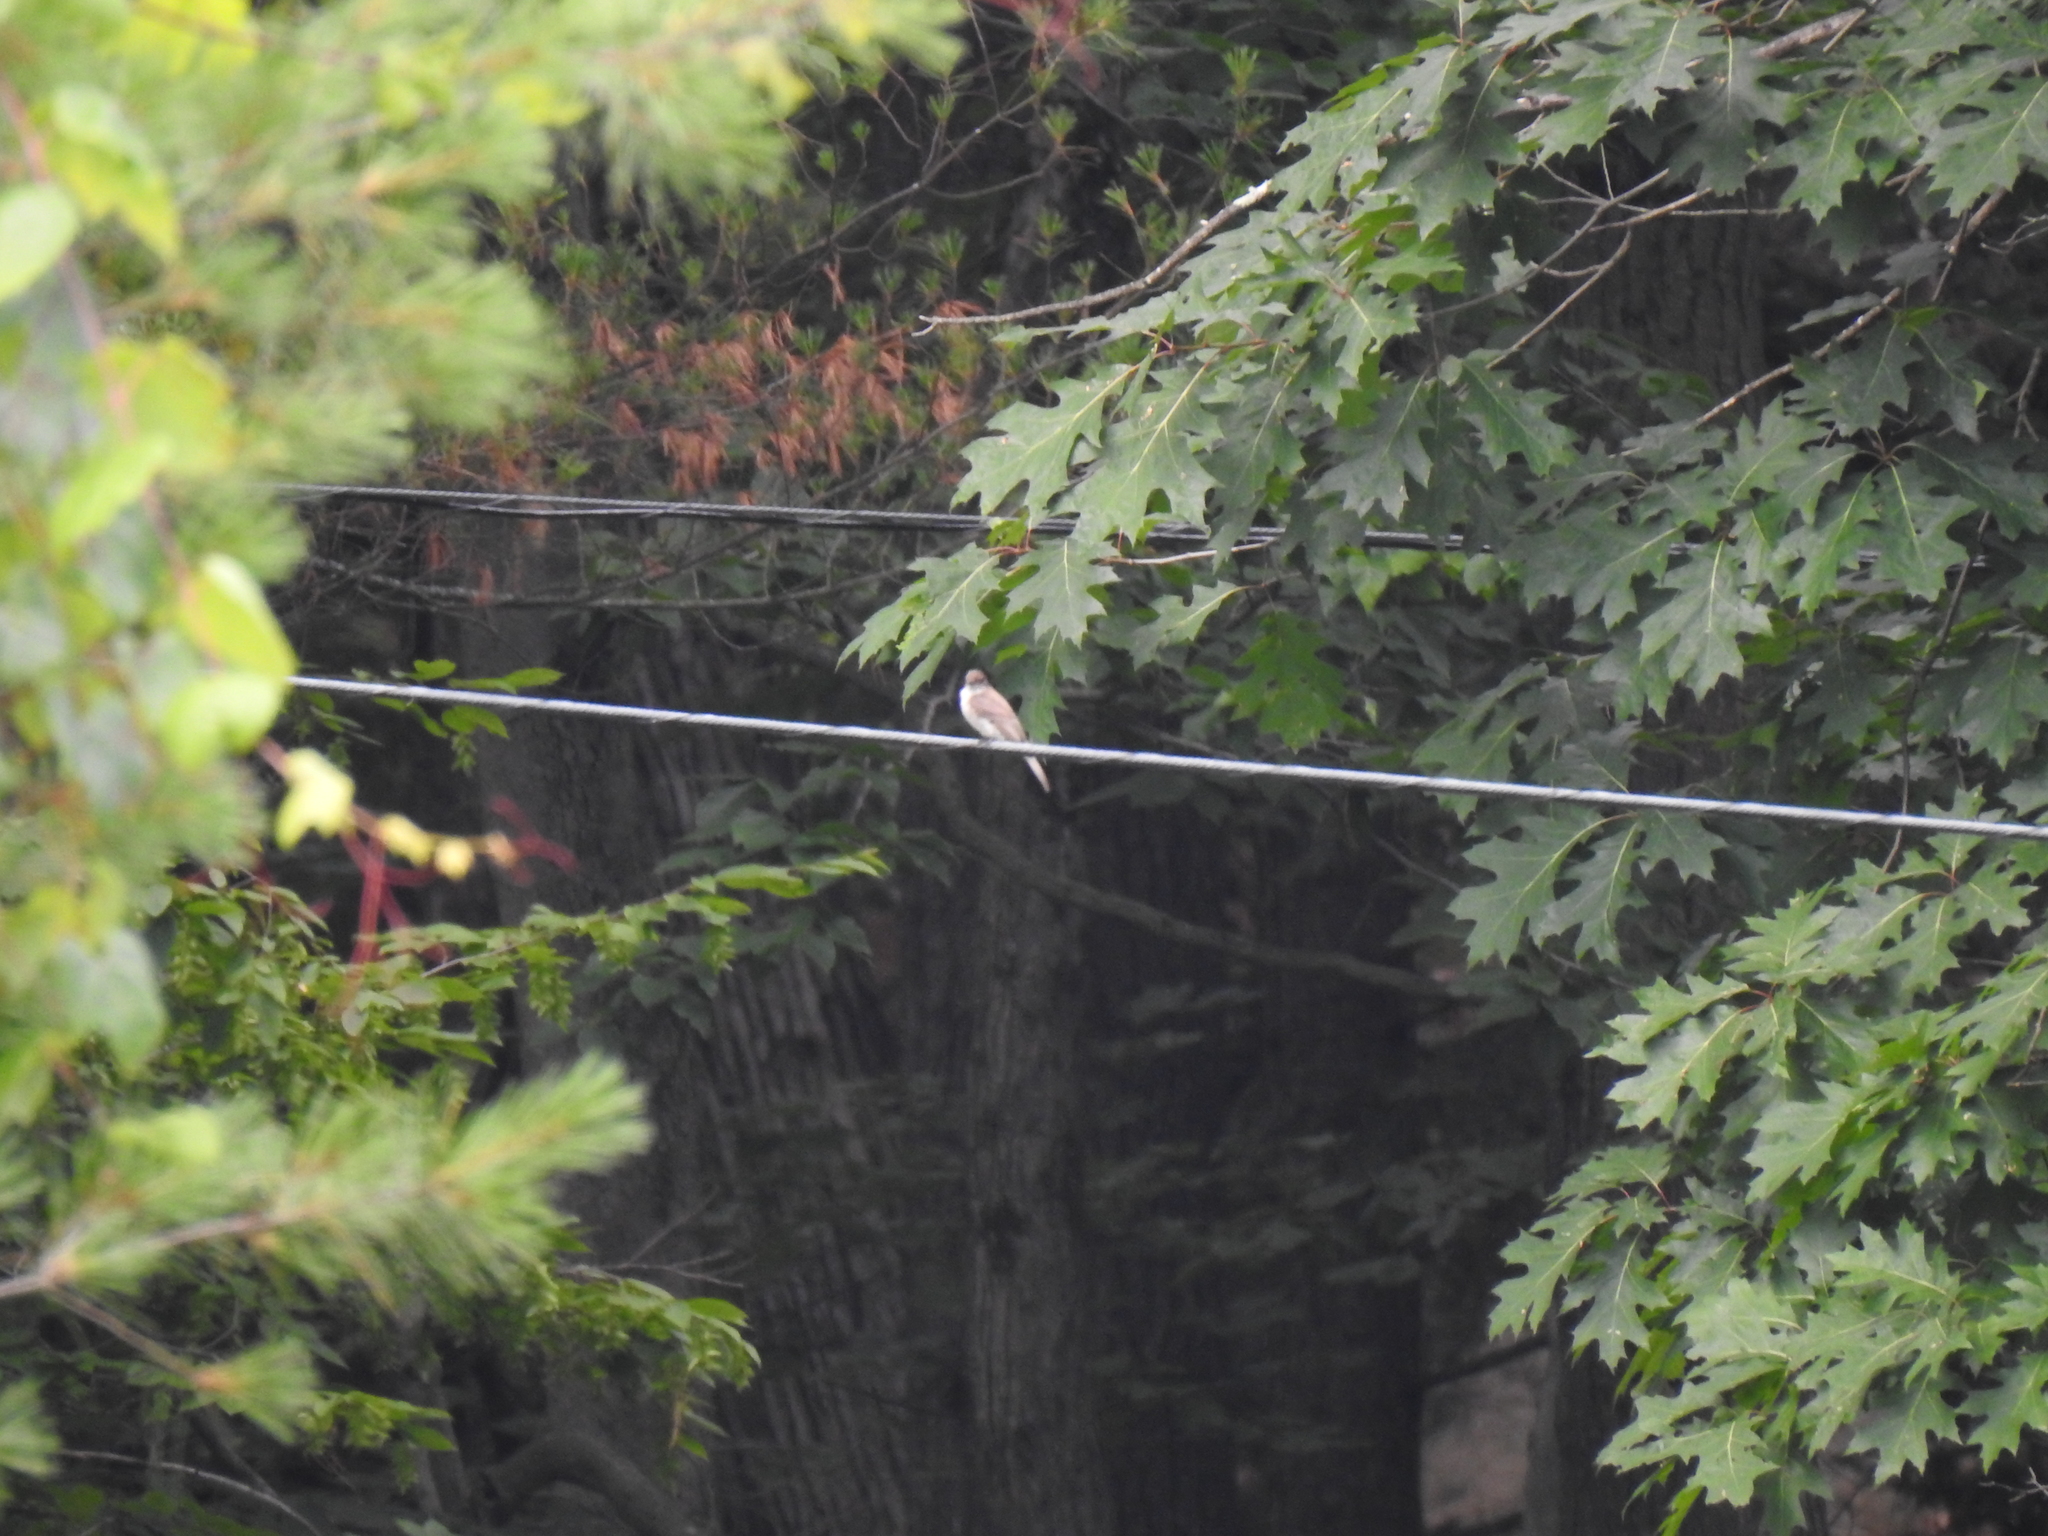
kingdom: Animalia
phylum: Chordata
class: Aves
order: Passeriformes
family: Tyrannidae
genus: Sayornis
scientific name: Sayornis phoebe
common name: Eastern phoebe
